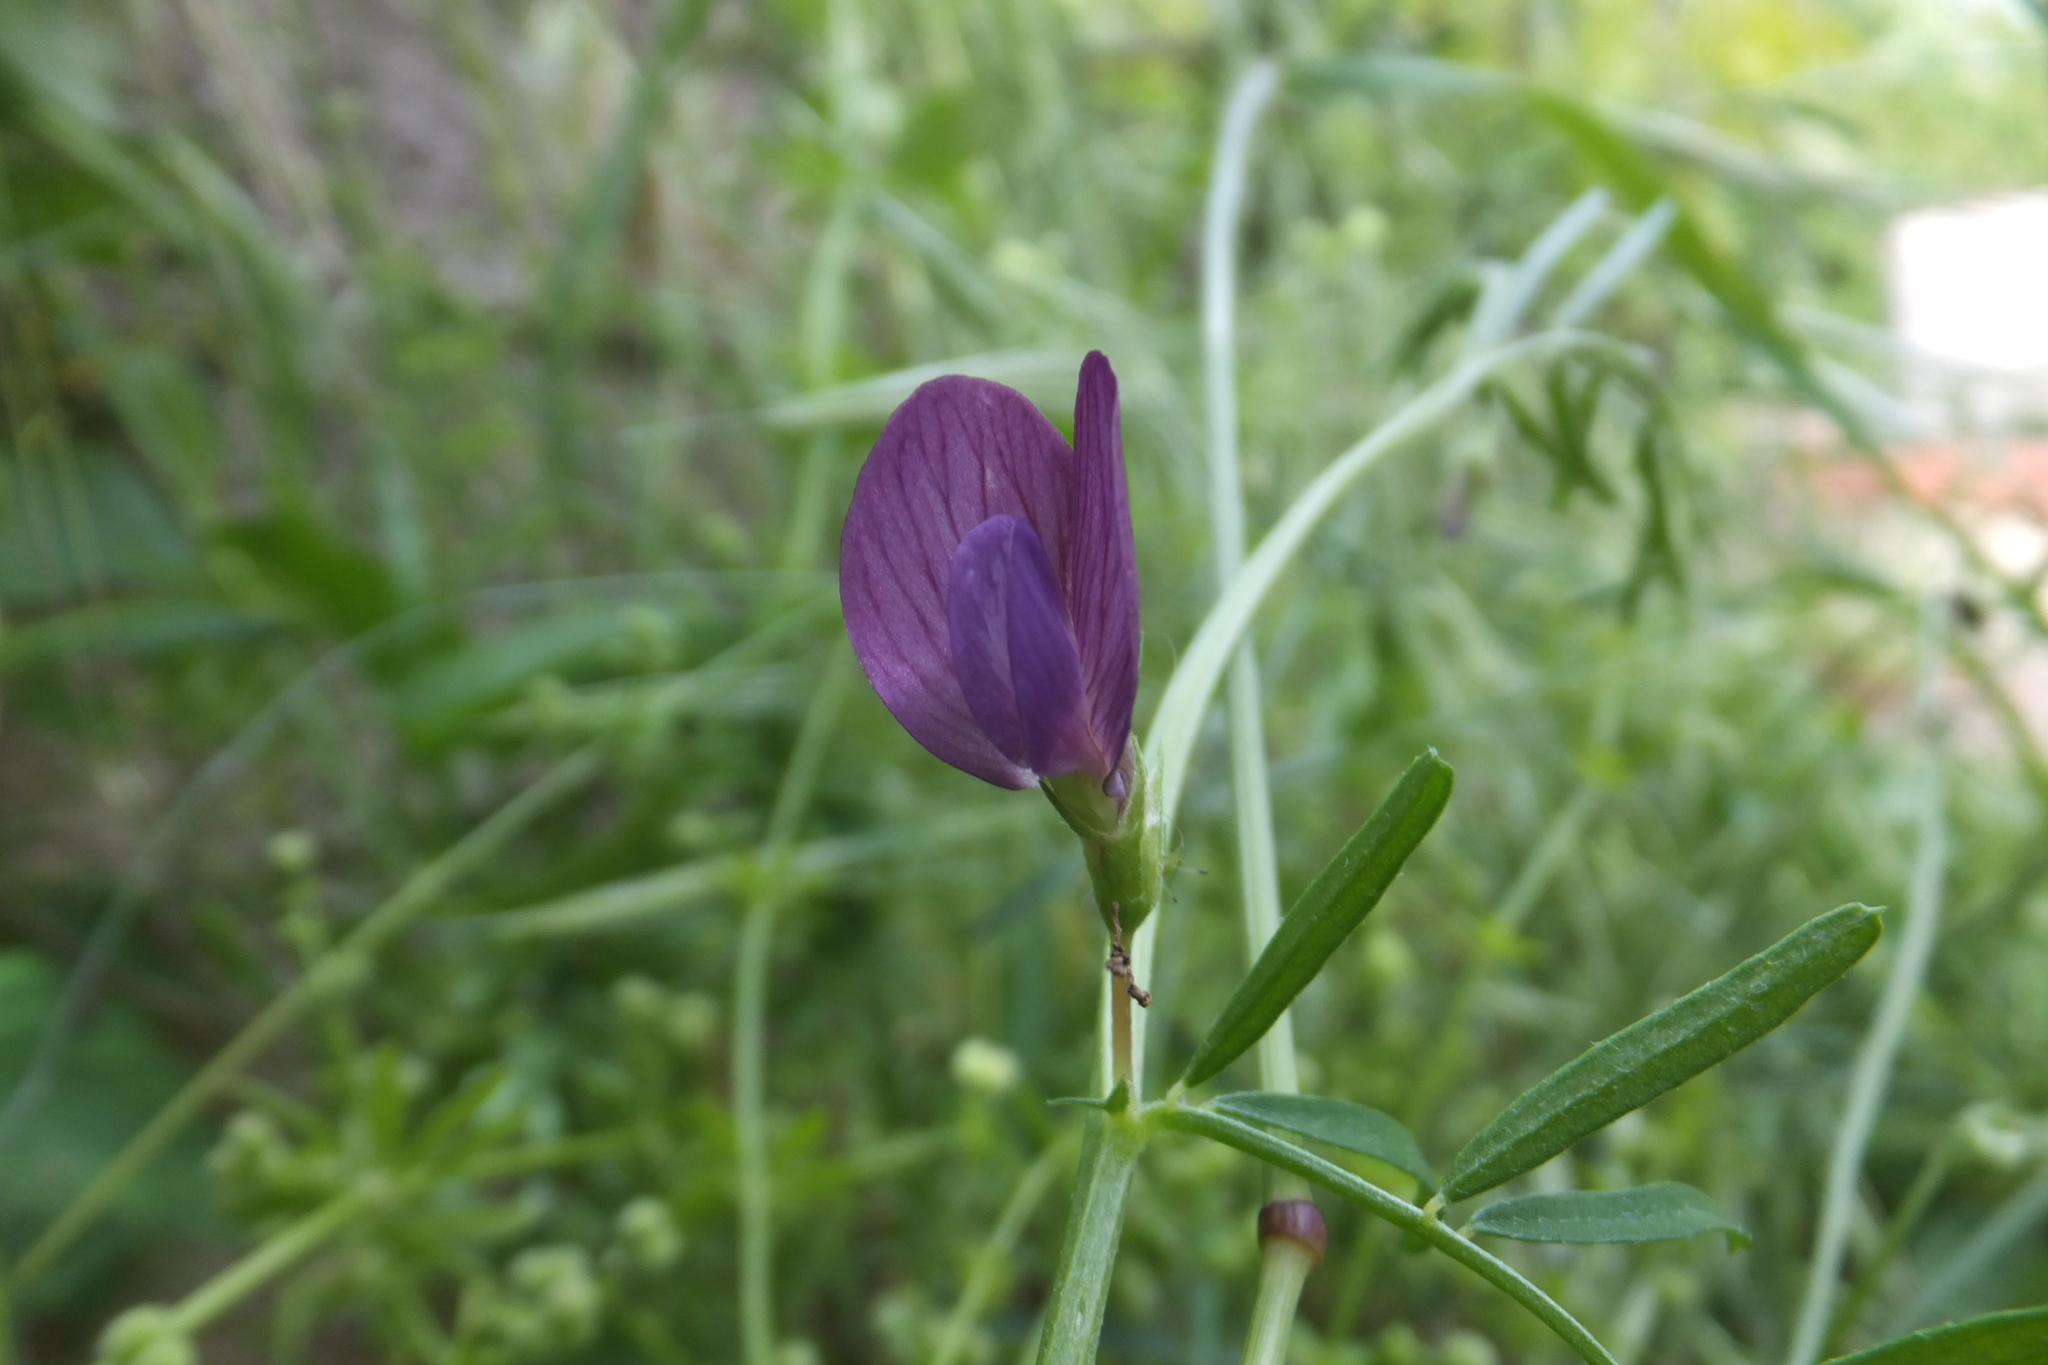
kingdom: Plantae
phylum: Tracheophyta
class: Magnoliopsida
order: Fabales
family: Fabaceae
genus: Vicia
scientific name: Vicia peregrina
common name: Broad-pod vetch
